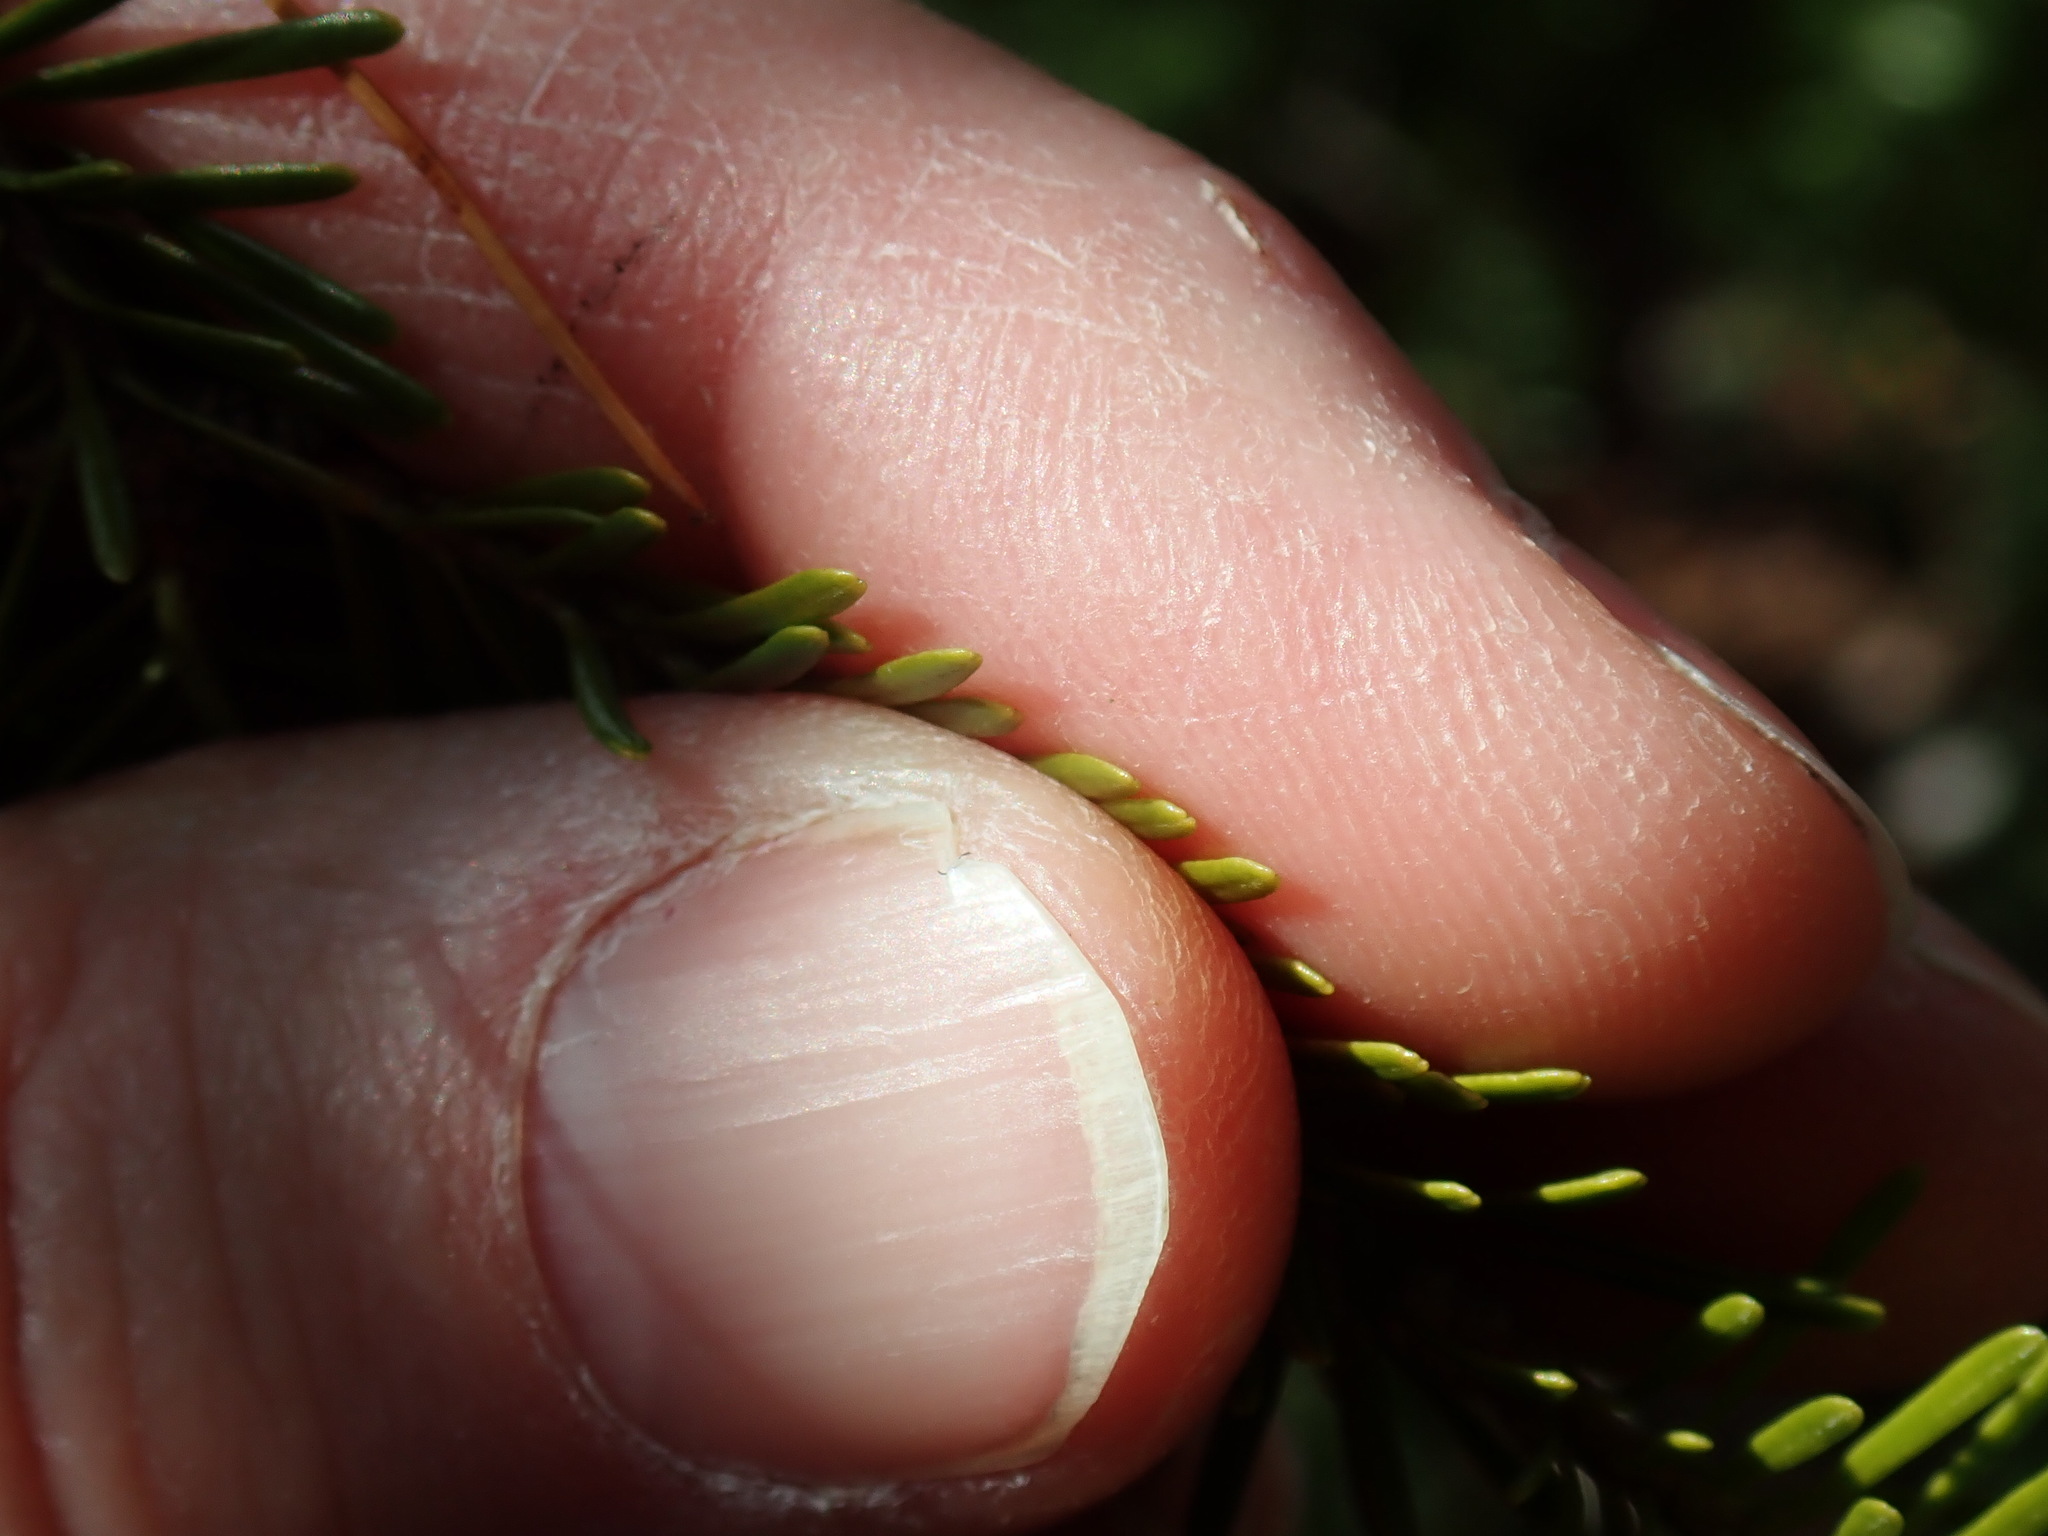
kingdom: Plantae
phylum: Tracheophyta
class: Pinopsida
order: Pinales
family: Pinaceae
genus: Abies
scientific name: Abies balsamea
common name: Balsam fir
